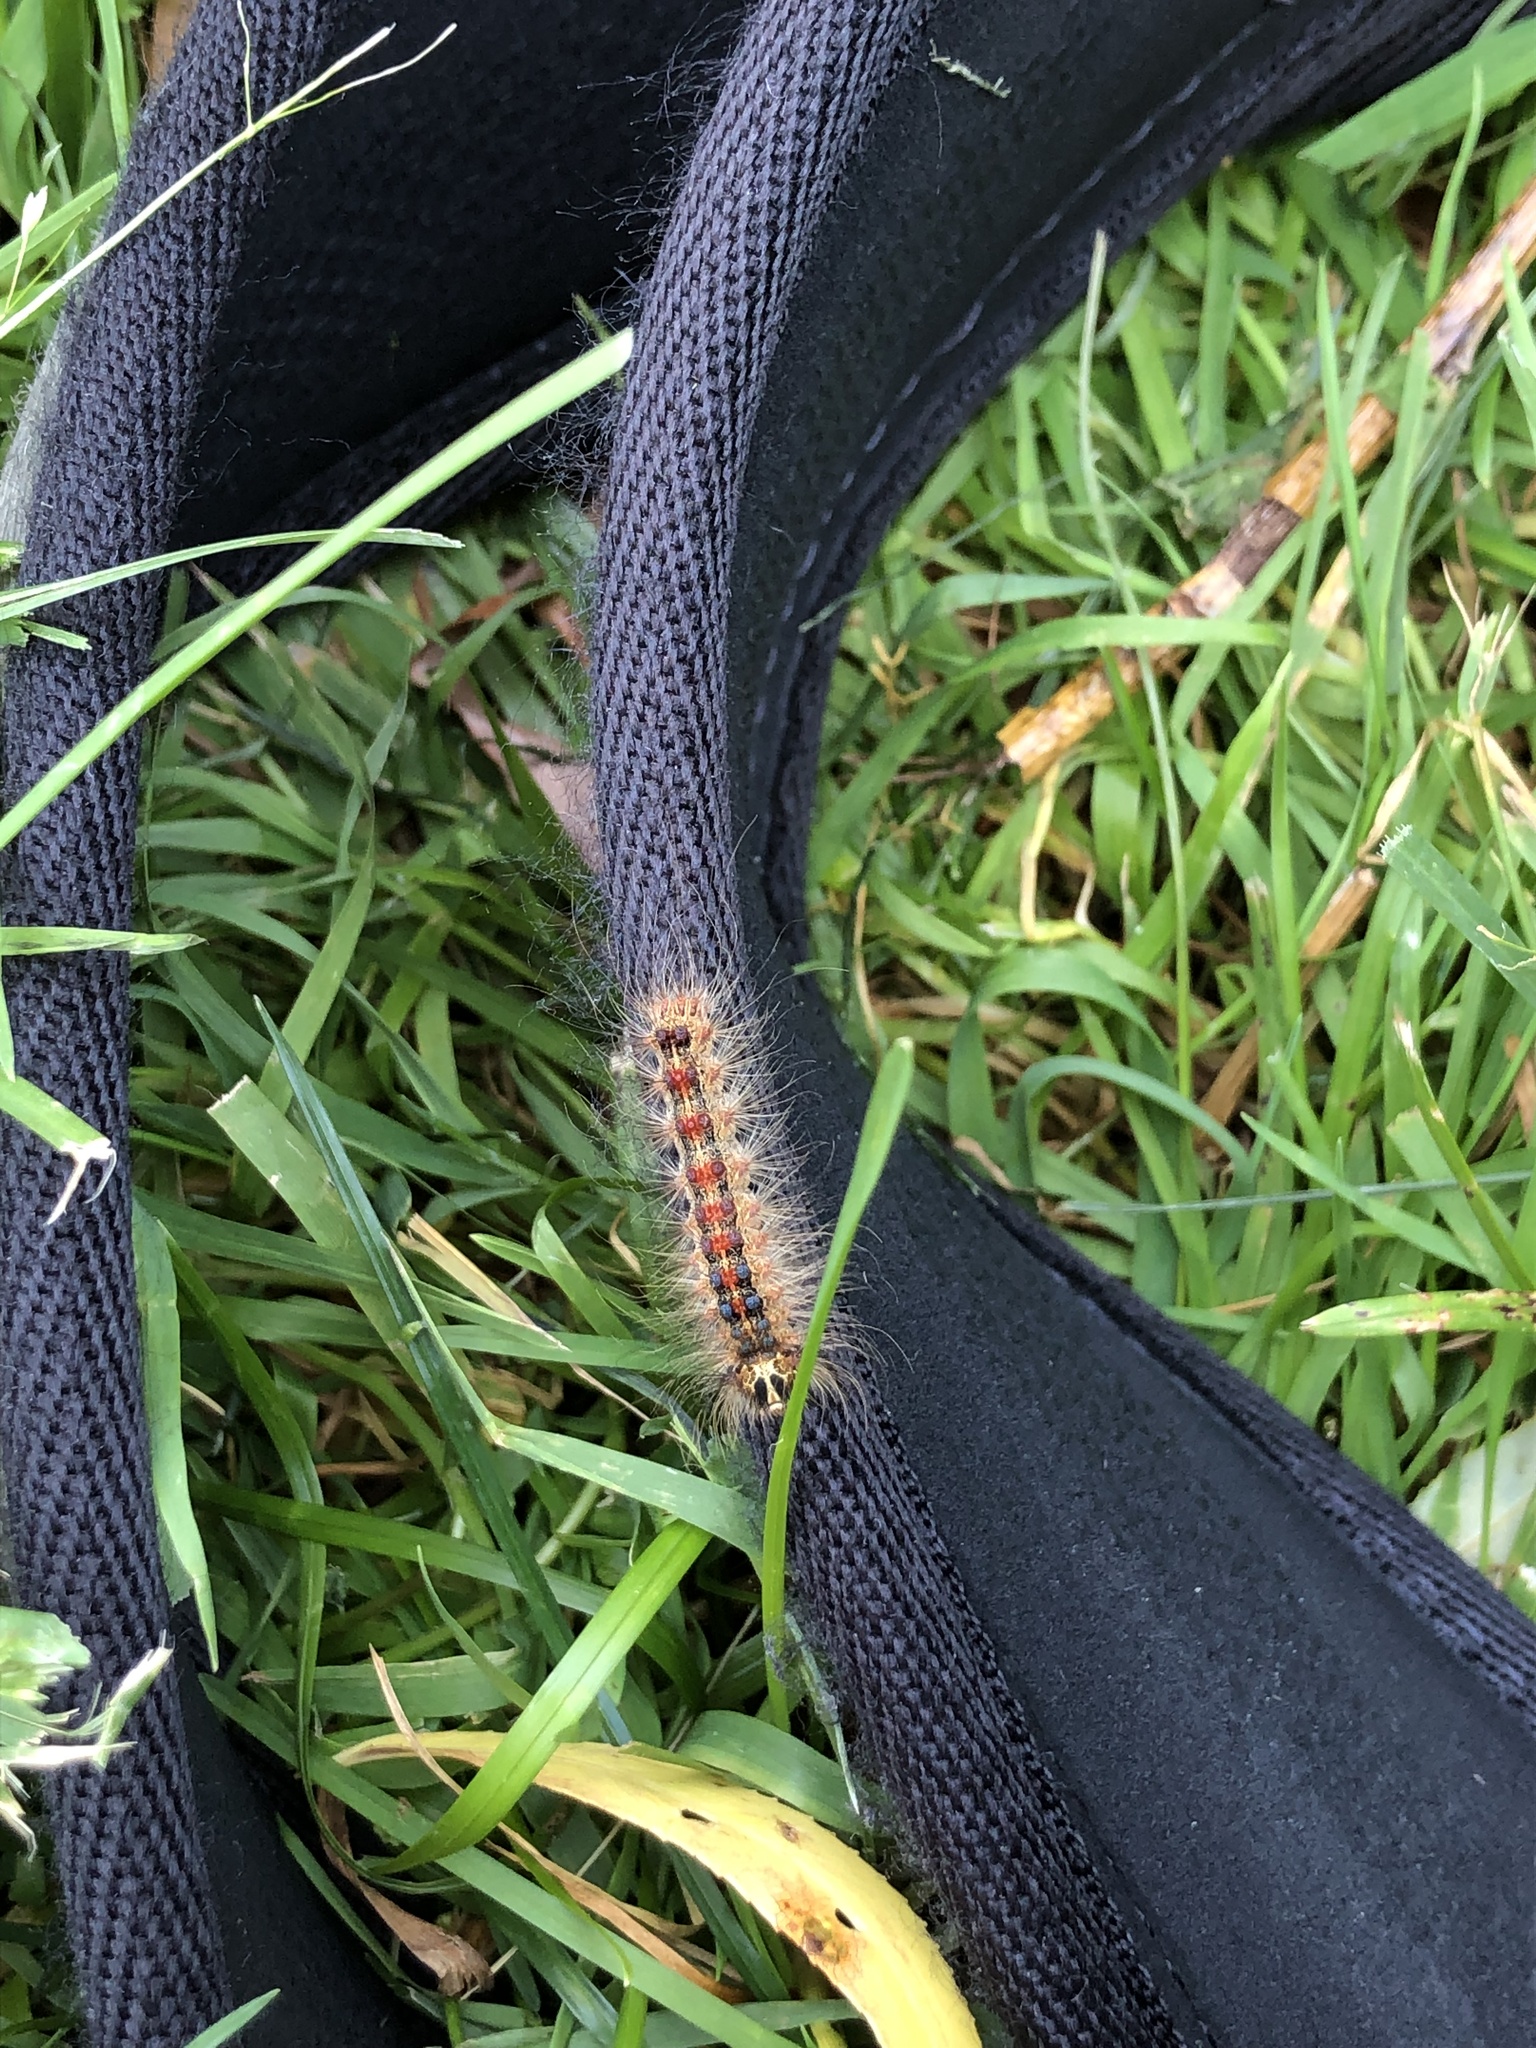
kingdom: Animalia
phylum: Arthropoda
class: Insecta
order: Lepidoptera
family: Erebidae
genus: Lymantria
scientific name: Lymantria dispar
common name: Gypsy moth
